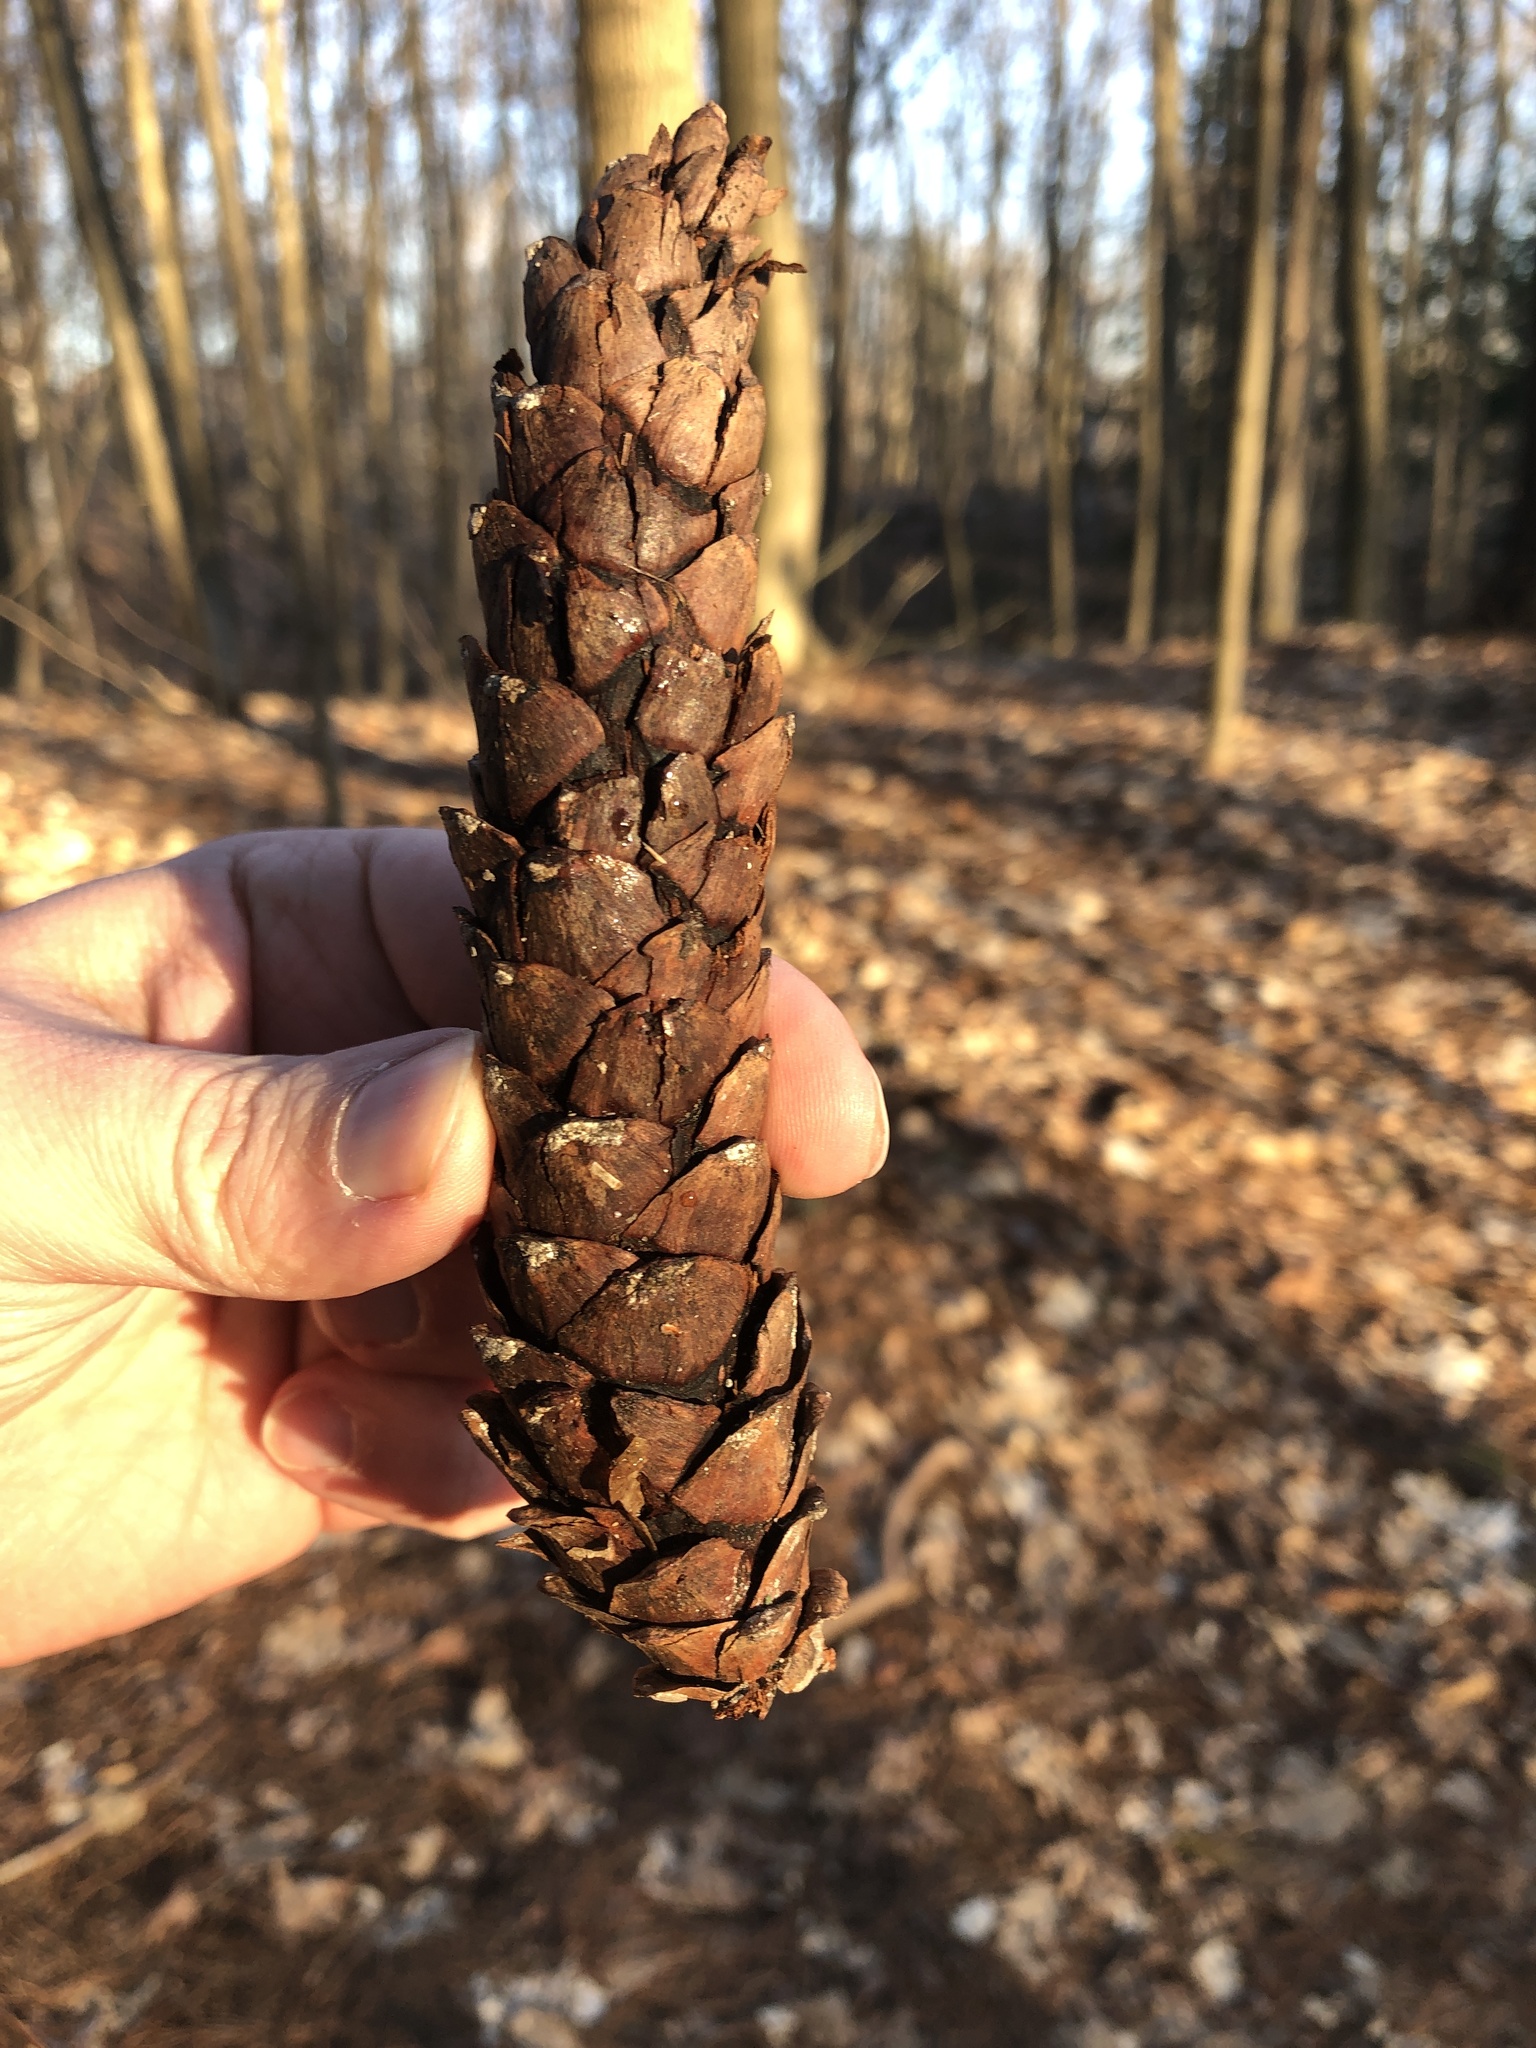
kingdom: Plantae
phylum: Tracheophyta
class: Pinopsida
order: Pinales
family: Pinaceae
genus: Pinus
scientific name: Pinus strobus
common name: Weymouth pine
